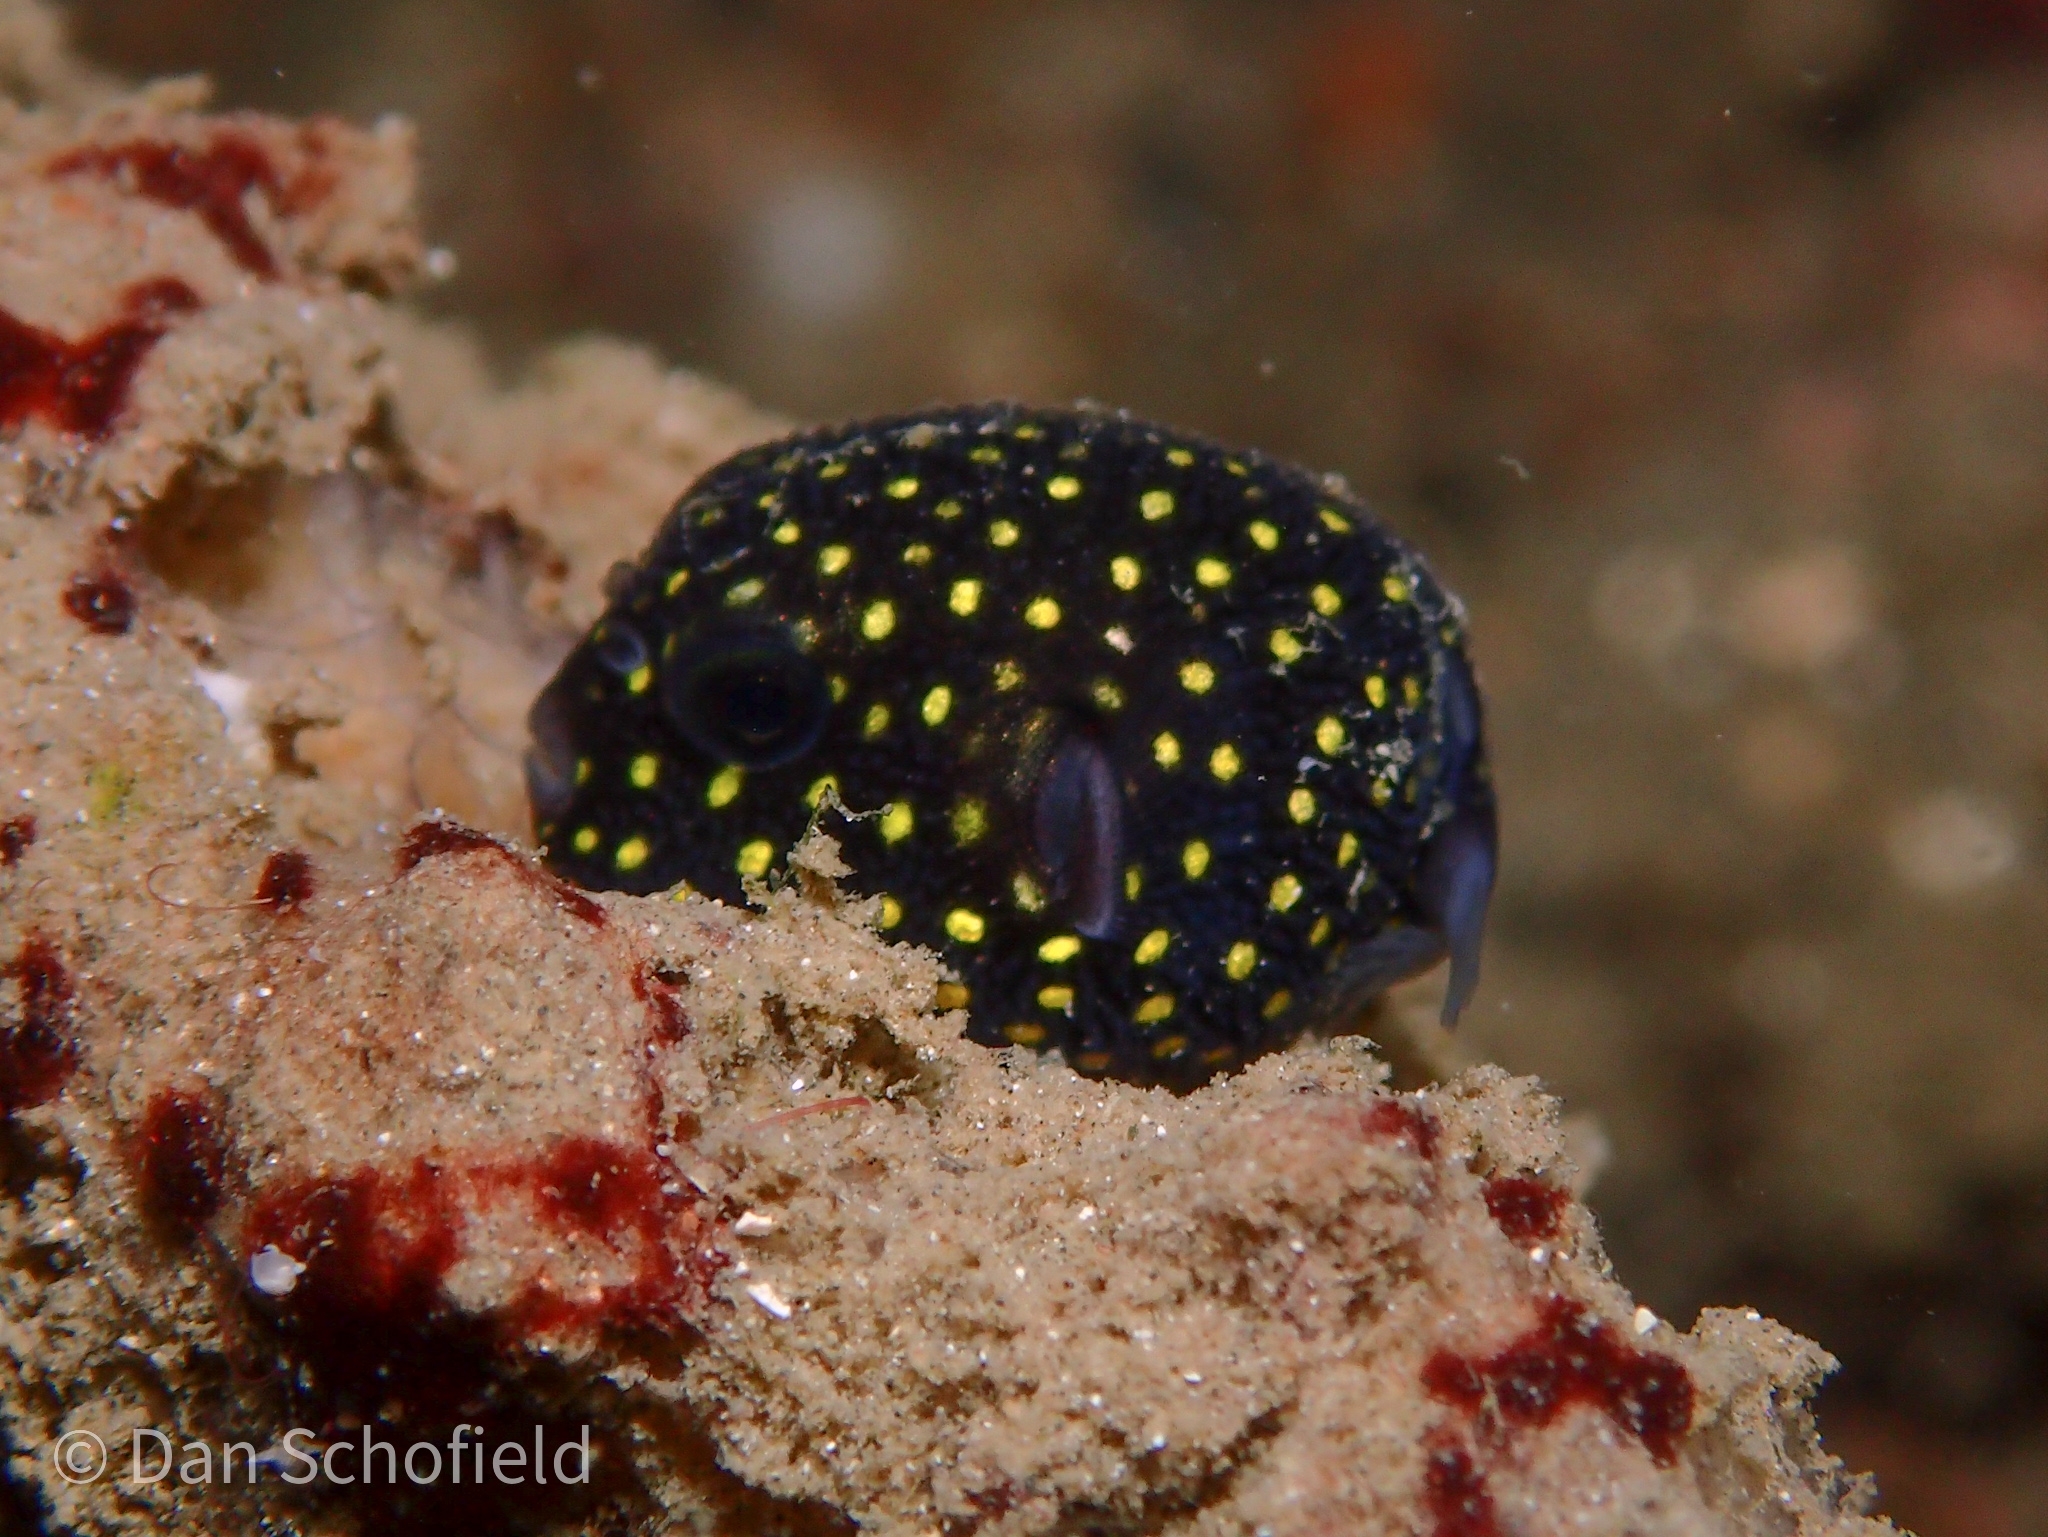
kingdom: Animalia
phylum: Chordata
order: Tetraodontiformes
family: Tetraodontidae
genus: Arothron
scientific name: Arothron meleagris
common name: Guinea-fowl pufferfish
